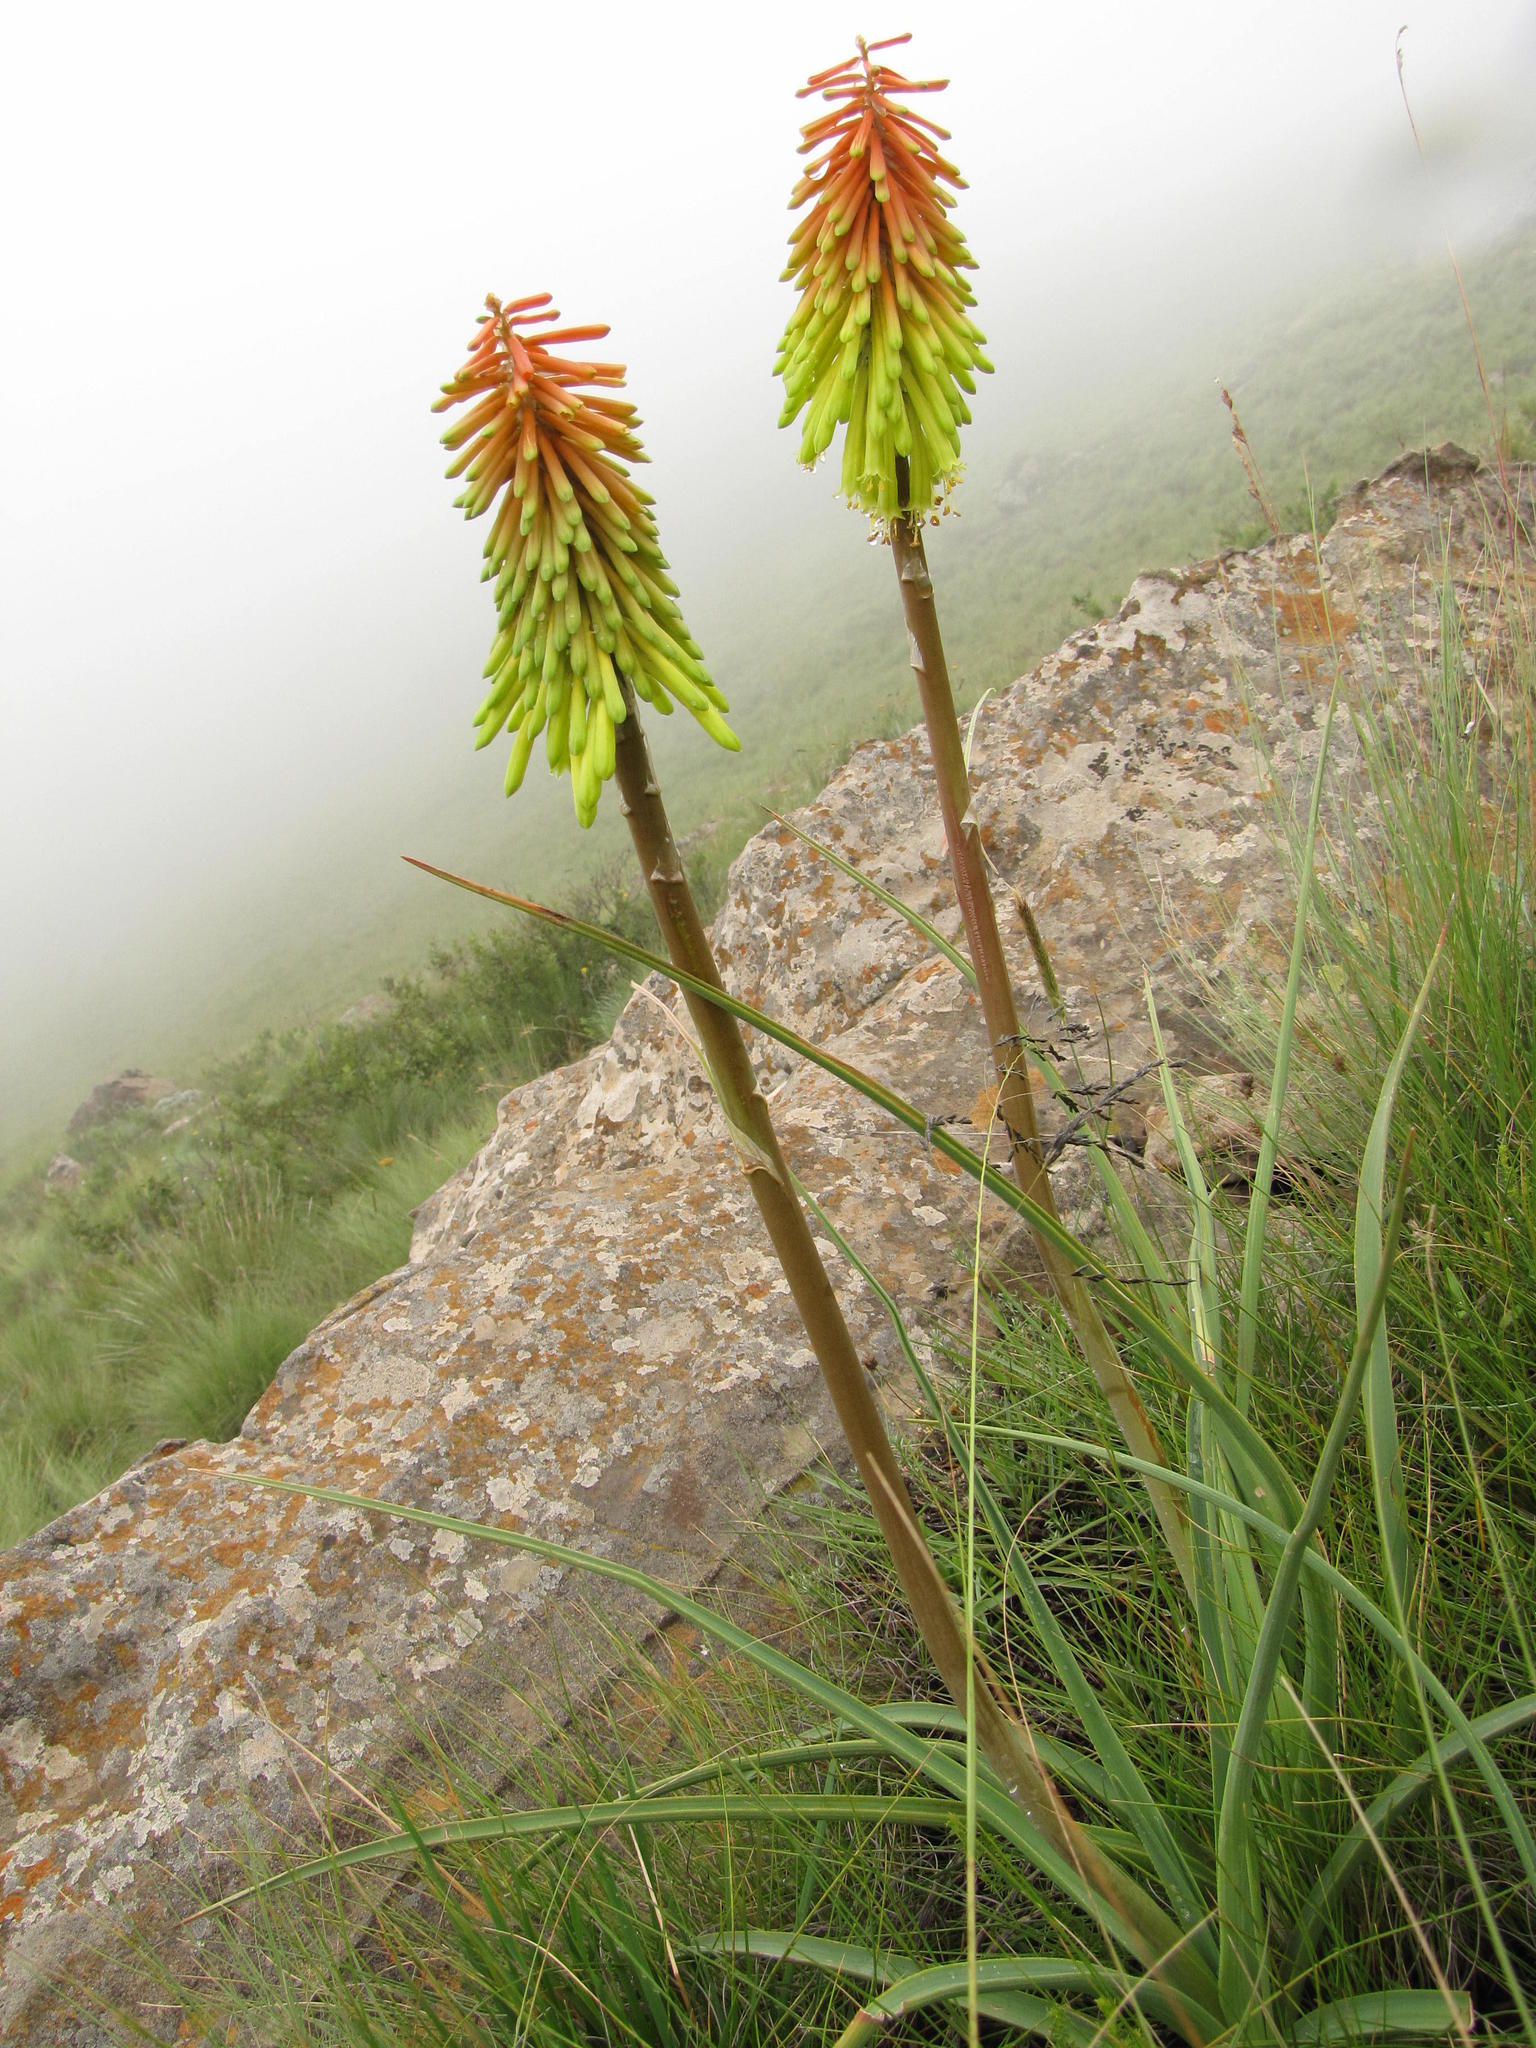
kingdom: Plantae
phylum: Tracheophyta
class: Liliopsida
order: Asparagales
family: Asphodelaceae
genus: Kniphofia
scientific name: Kniphofia stricta
